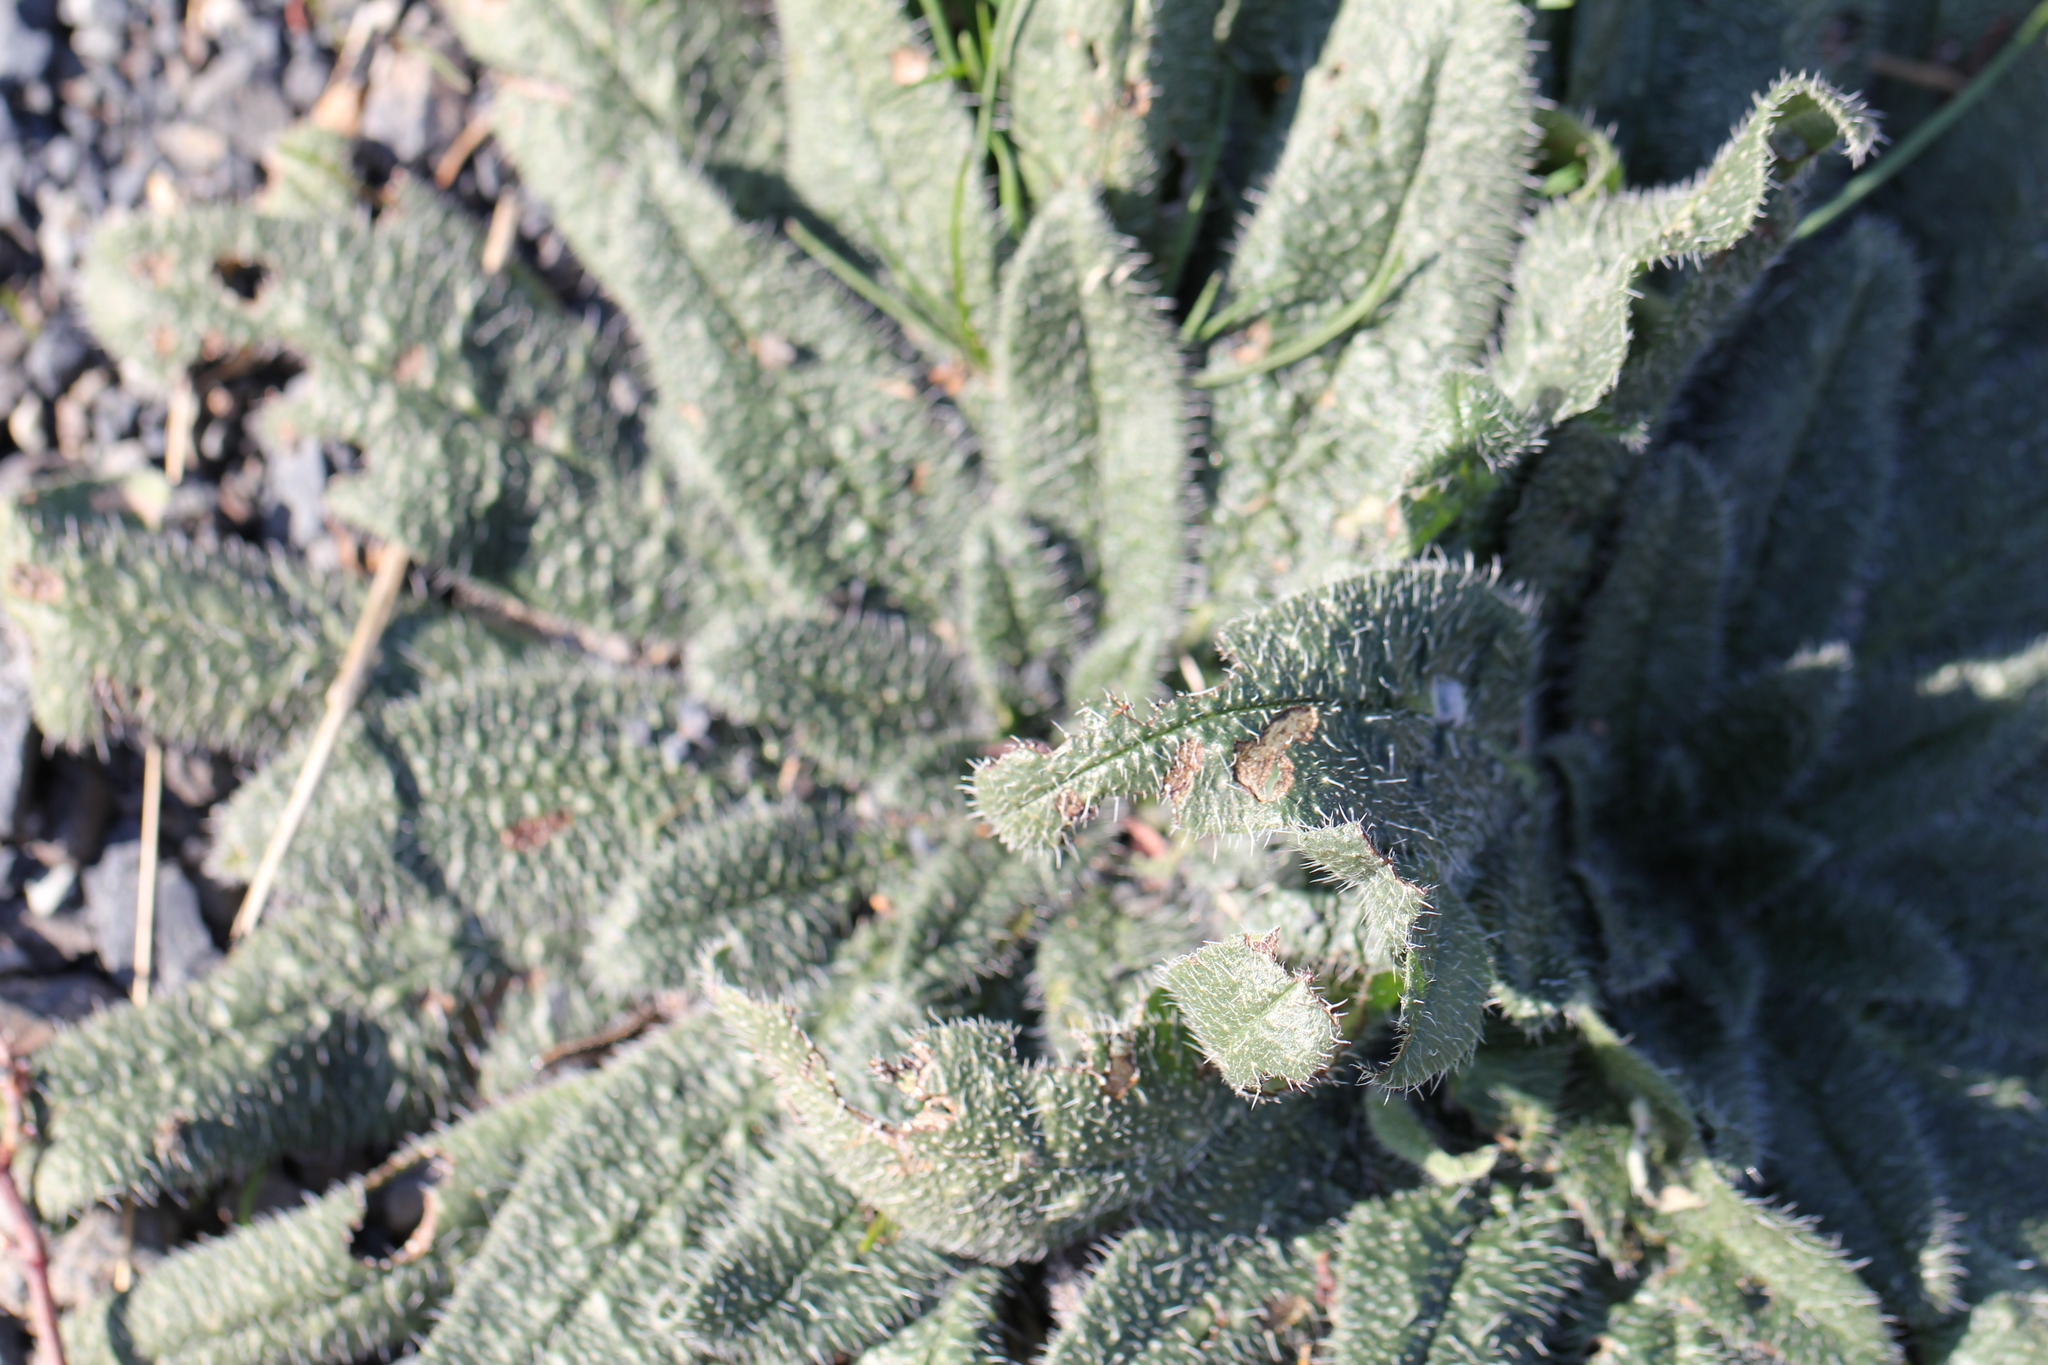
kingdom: Plantae
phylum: Tracheophyta
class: Magnoliopsida
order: Boraginales
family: Boraginaceae
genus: Echium
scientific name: Echium italicum
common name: Italian viper's bugloss
